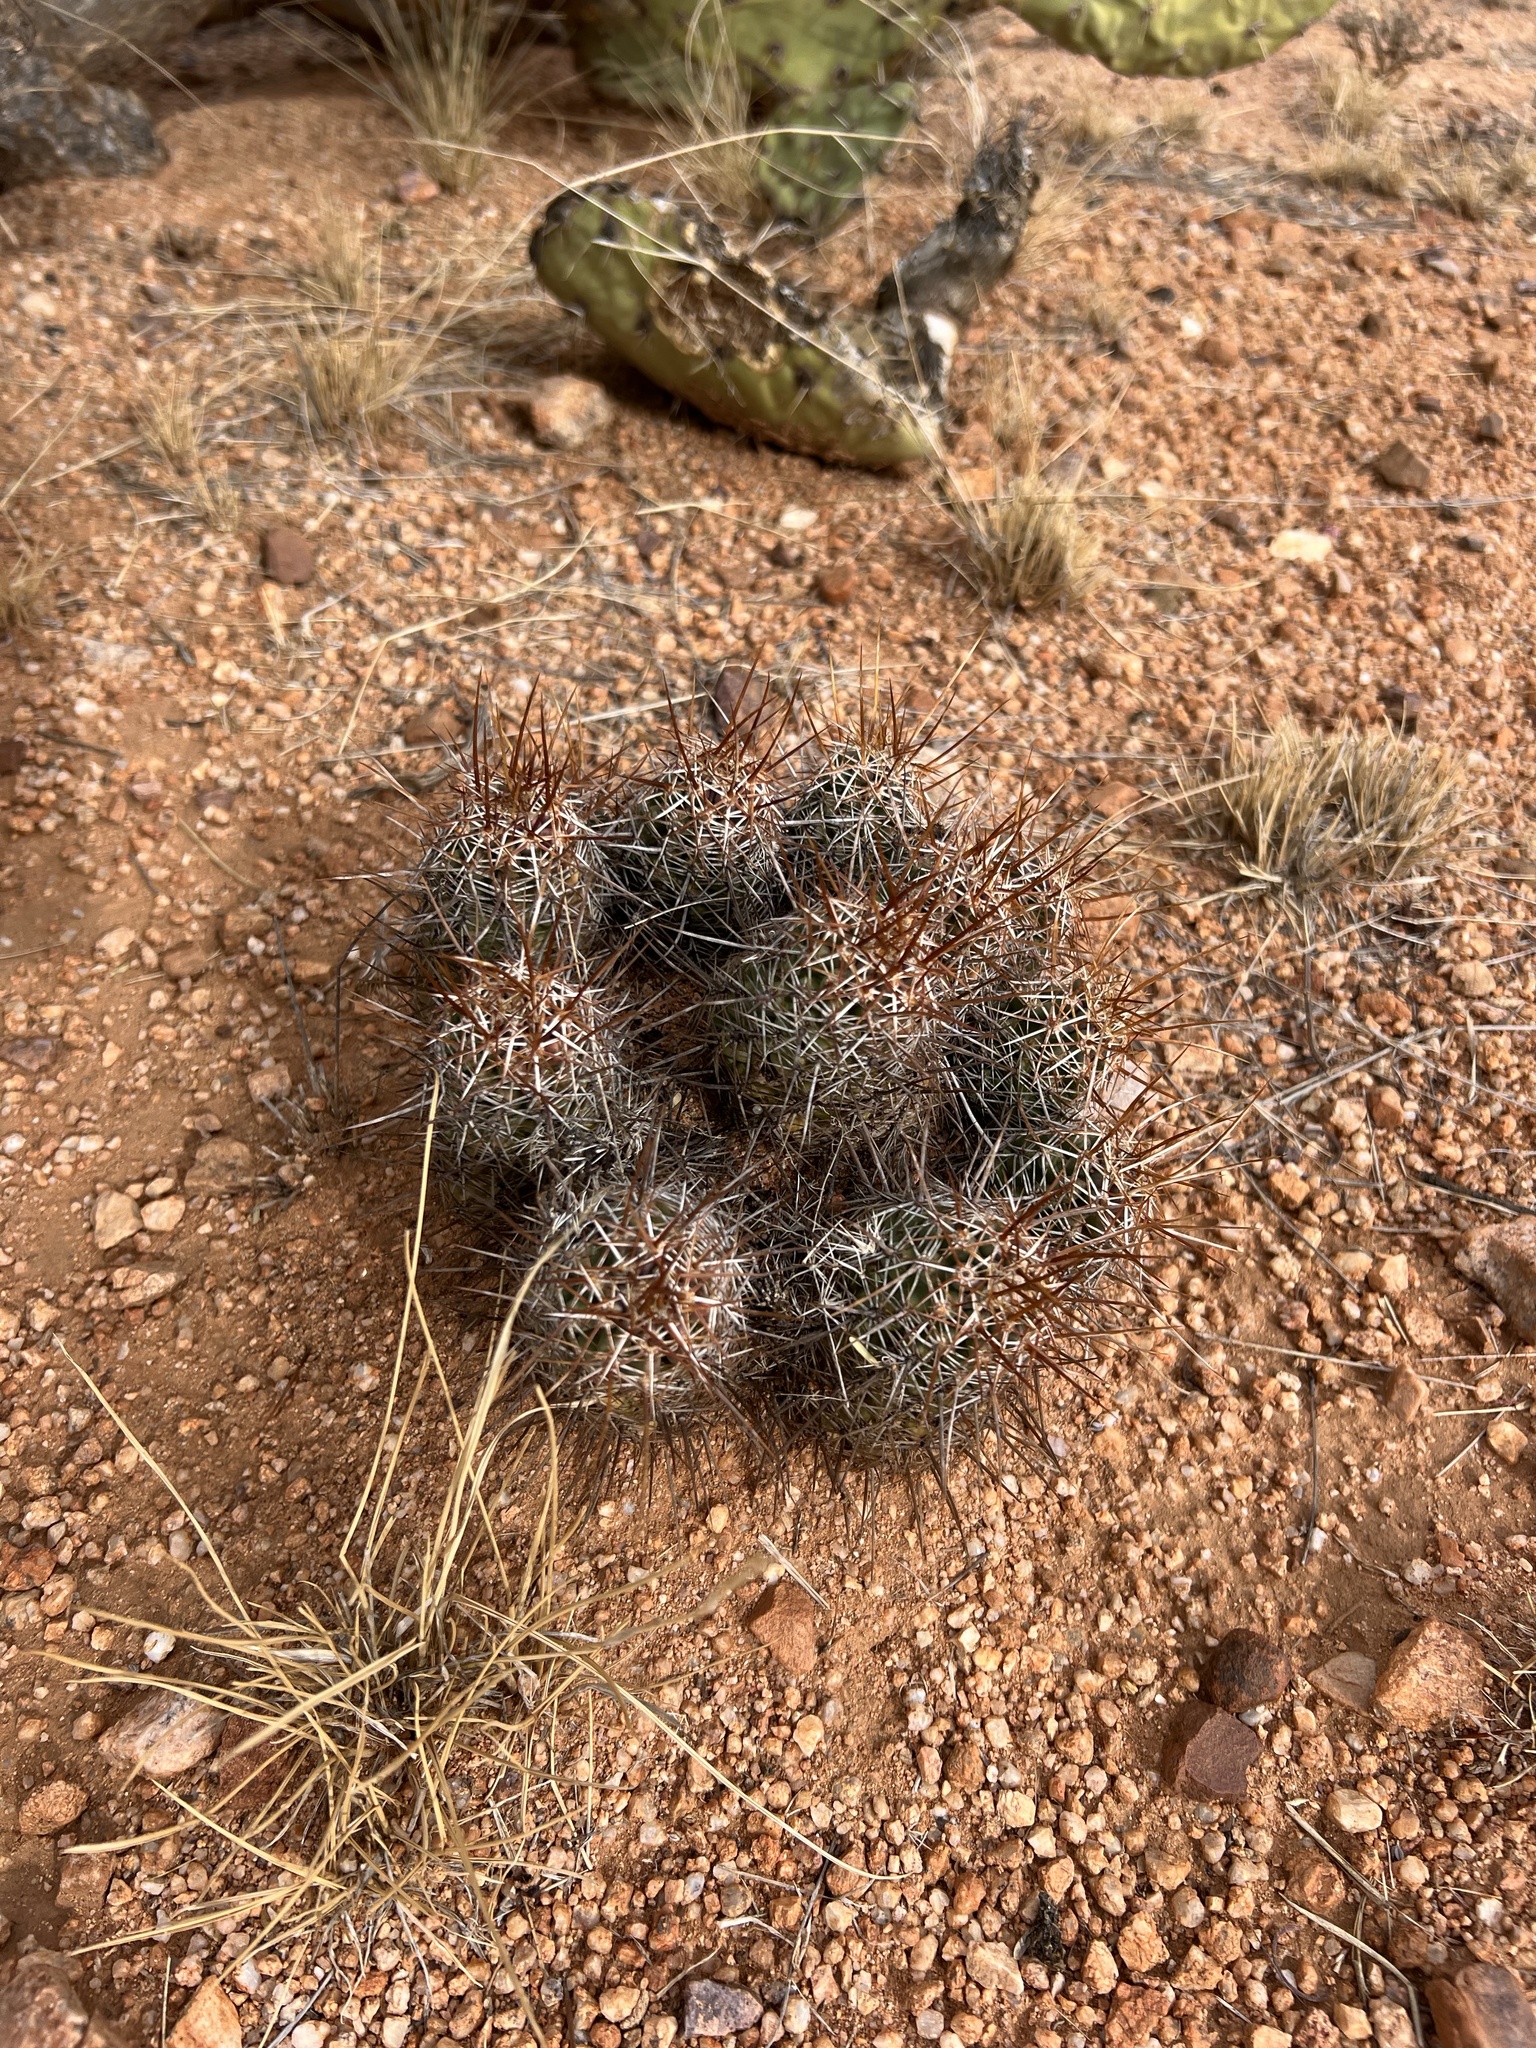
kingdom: Plantae
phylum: Tracheophyta
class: Magnoliopsida
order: Caryophyllales
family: Cactaceae
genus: Echinocereus
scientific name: Echinocereus fasciculatus
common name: Bundle hedgehog
